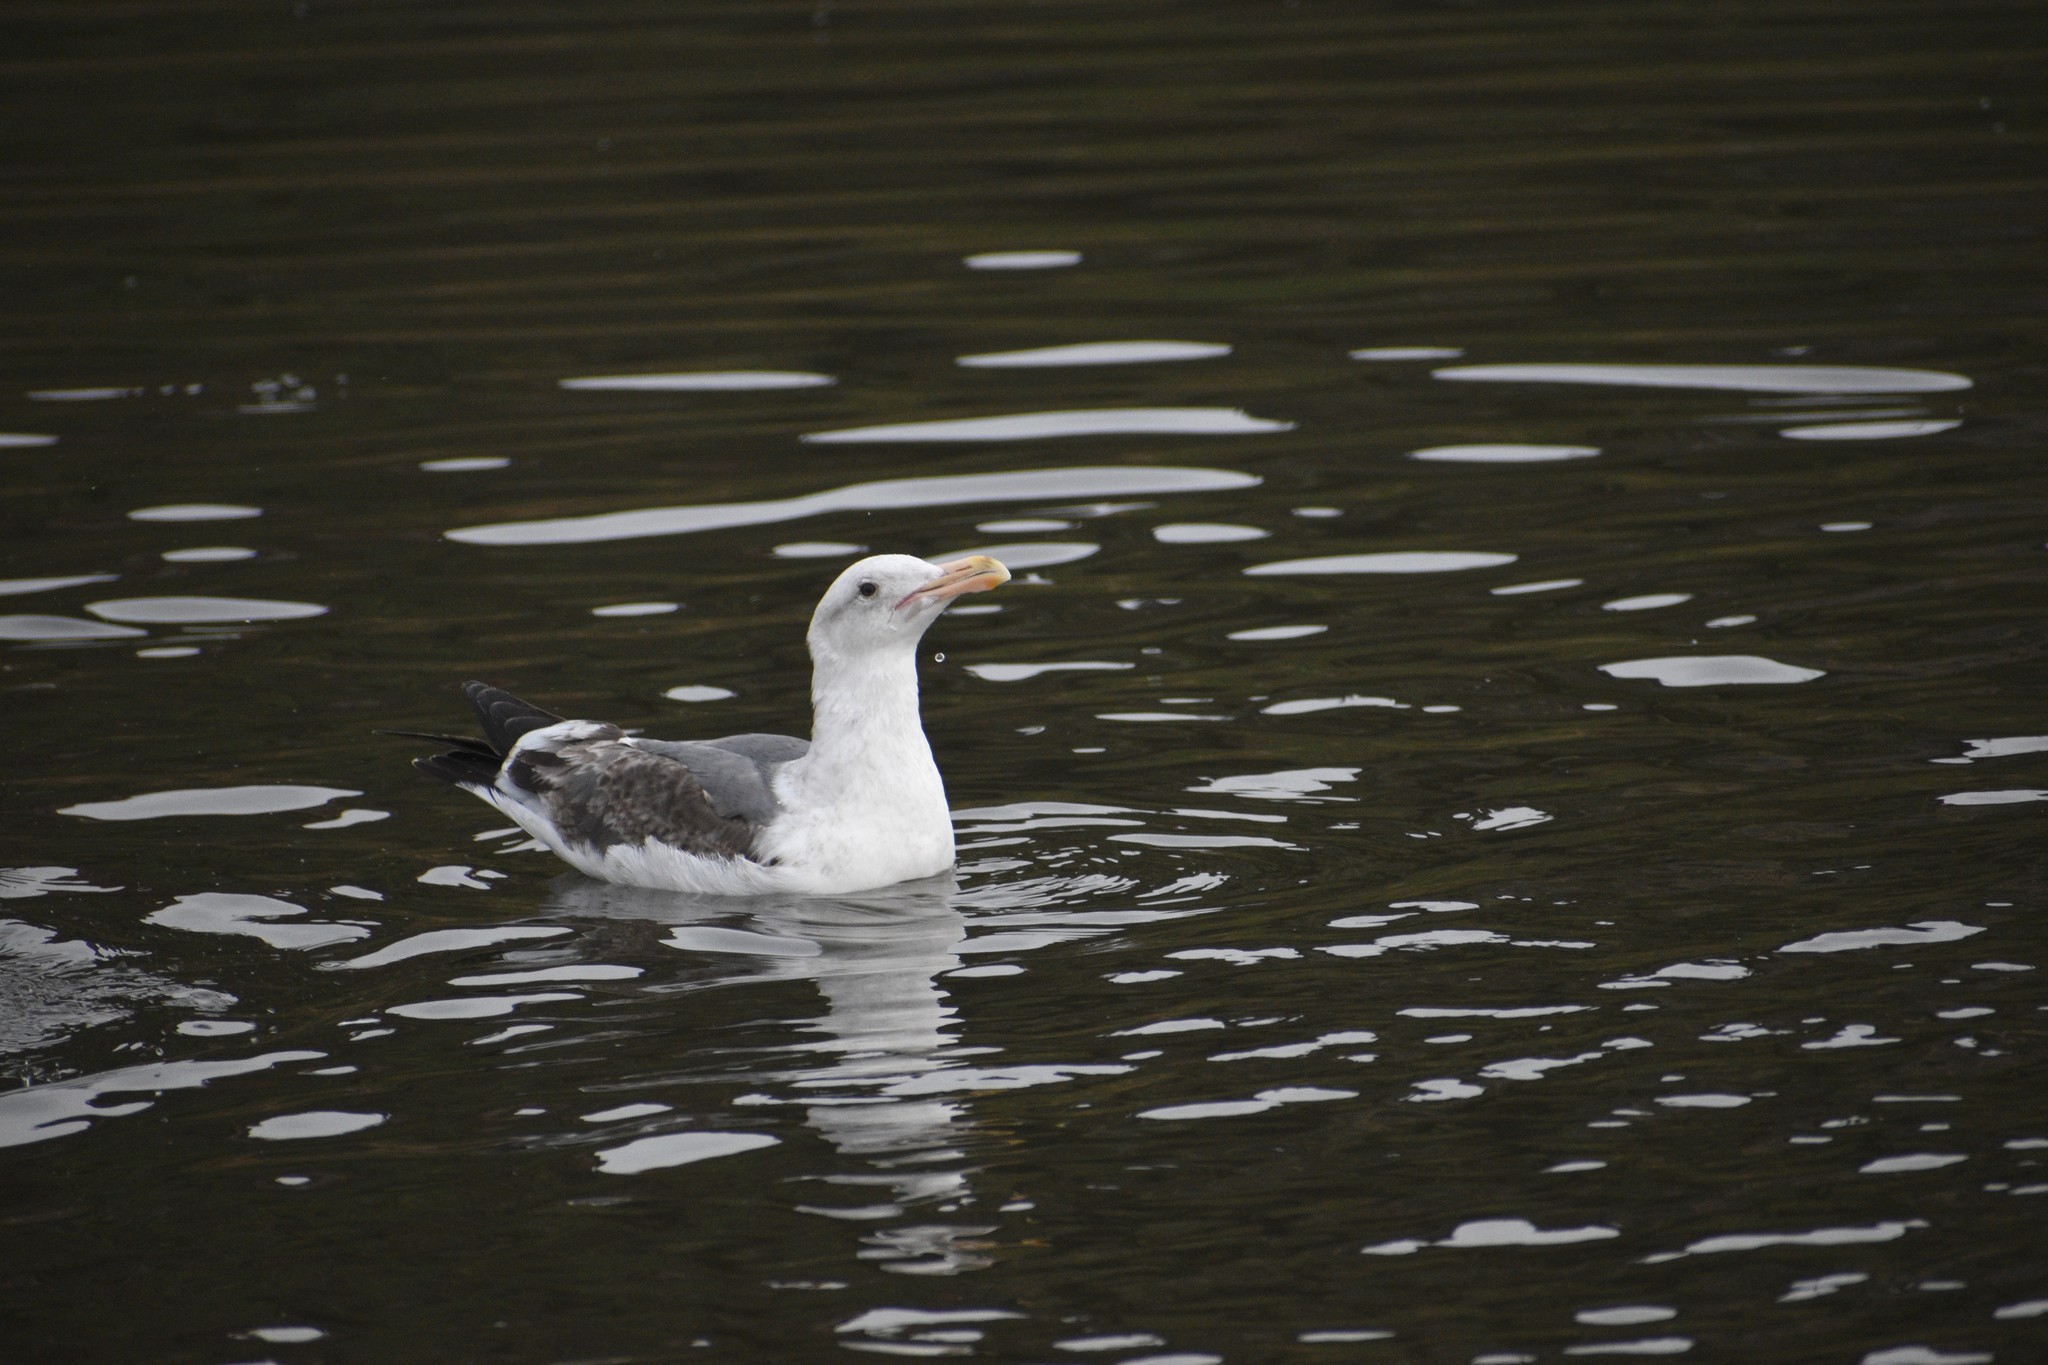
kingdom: Animalia
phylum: Chordata
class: Aves
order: Charadriiformes
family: Laridae
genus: Larus
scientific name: Larus occidentalis
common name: Western gull
